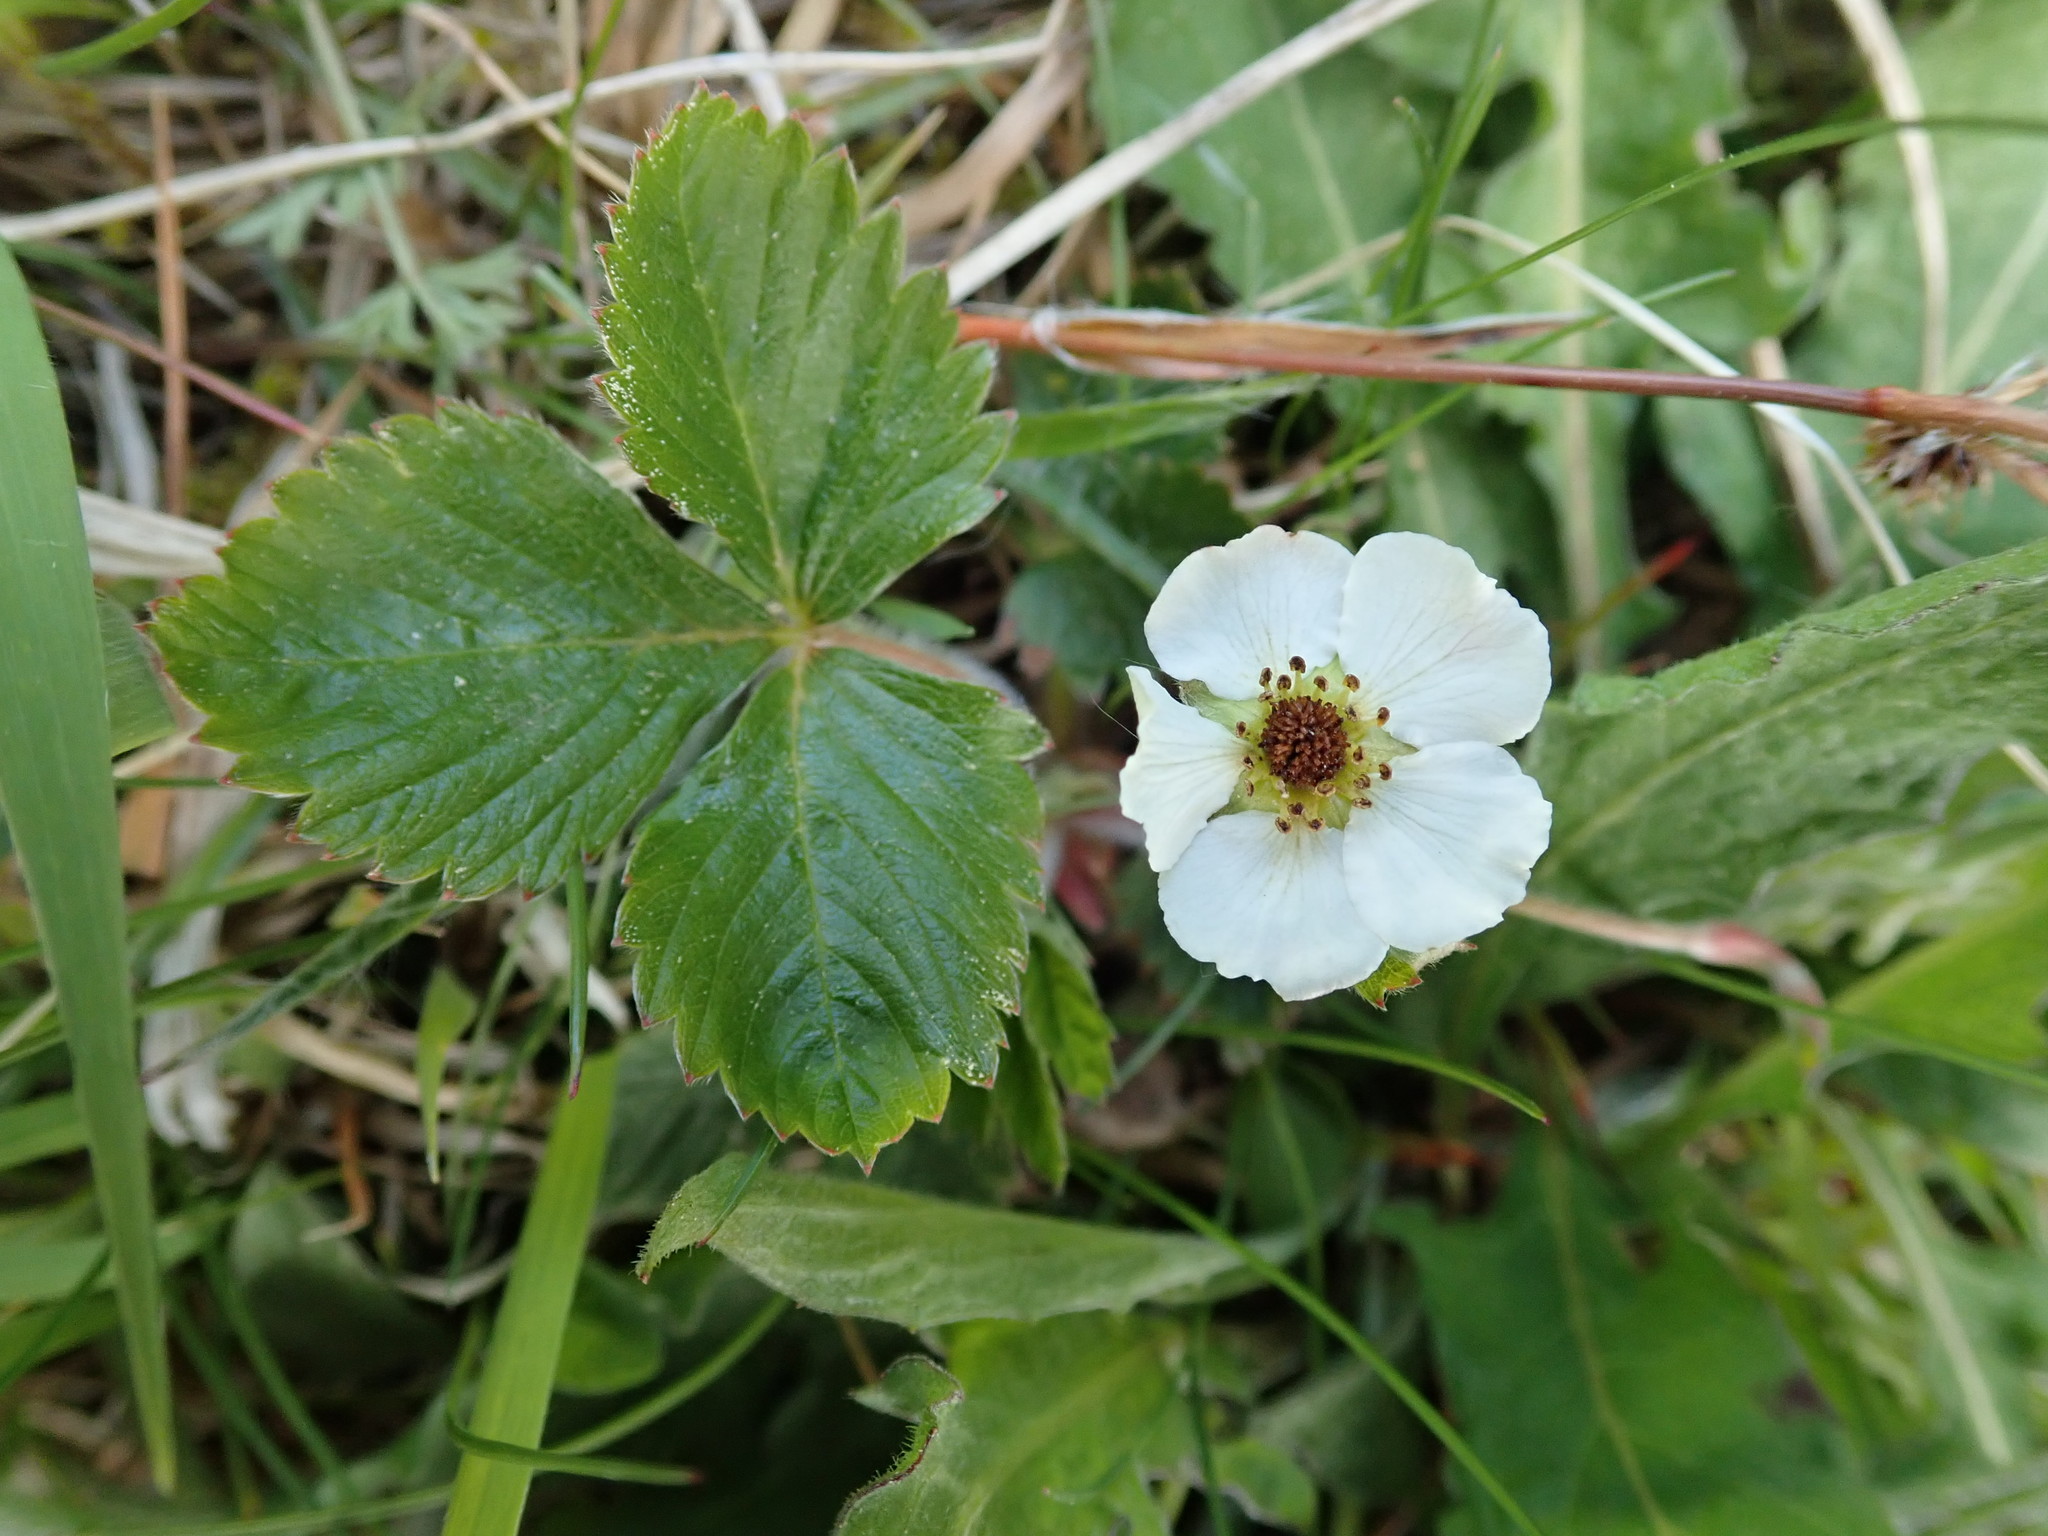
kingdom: Plantae
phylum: Tracheophyta
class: Magnoliopsida
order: Rosales
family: Rosaceae
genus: Fragaria
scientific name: Fragaria vesca
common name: Wild strawberry
